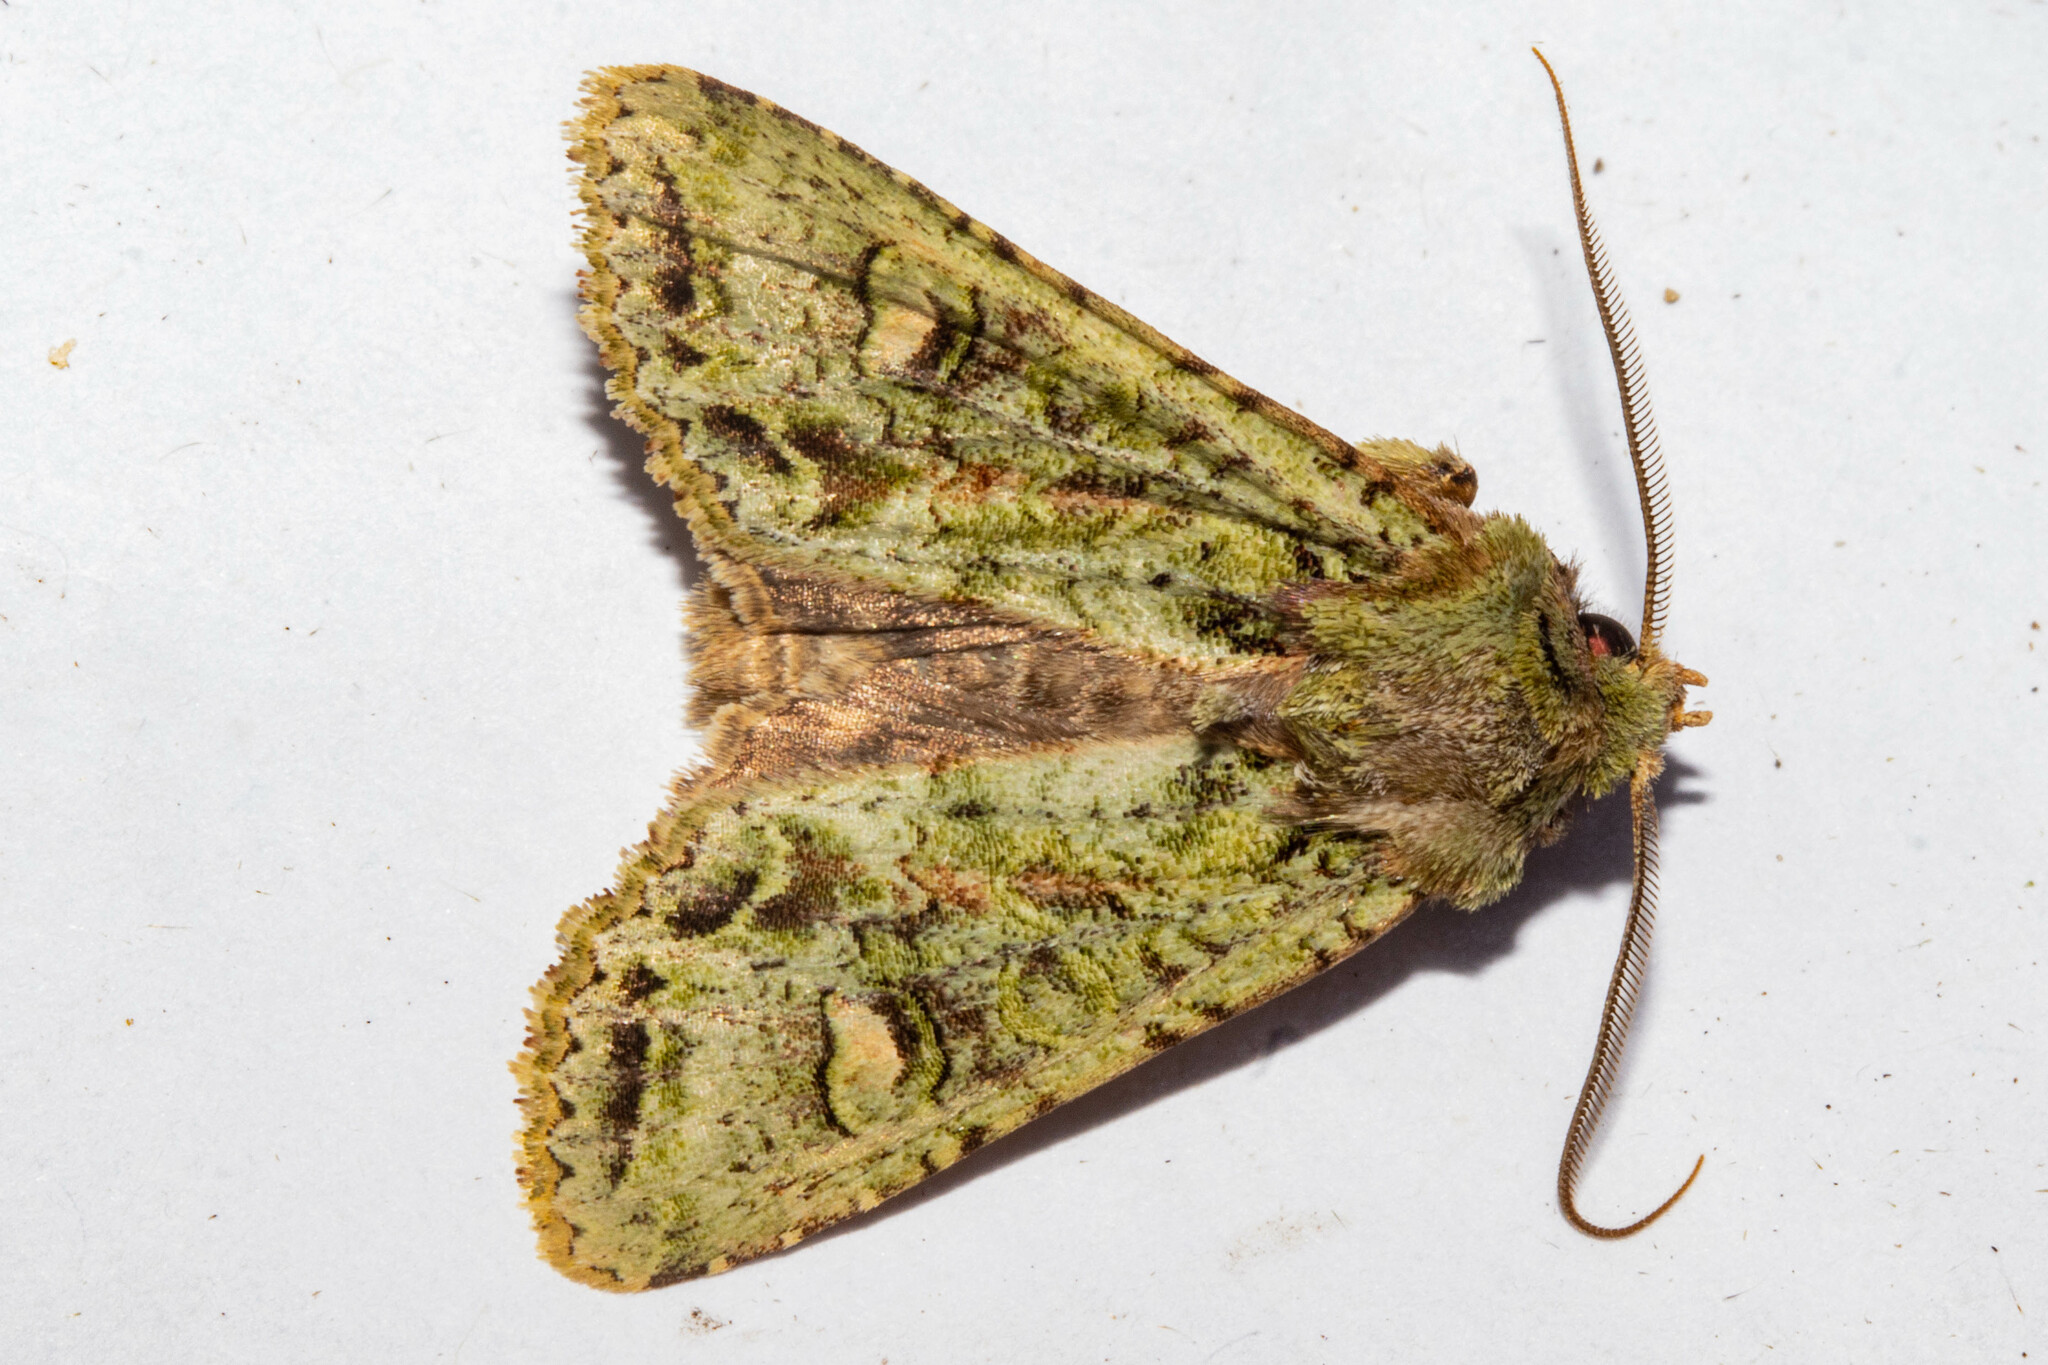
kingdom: Animalia
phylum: Arthropoda
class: Insecta
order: Lepidoptera
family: Noctuidae
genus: Ichneutica
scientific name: Ichneutica
